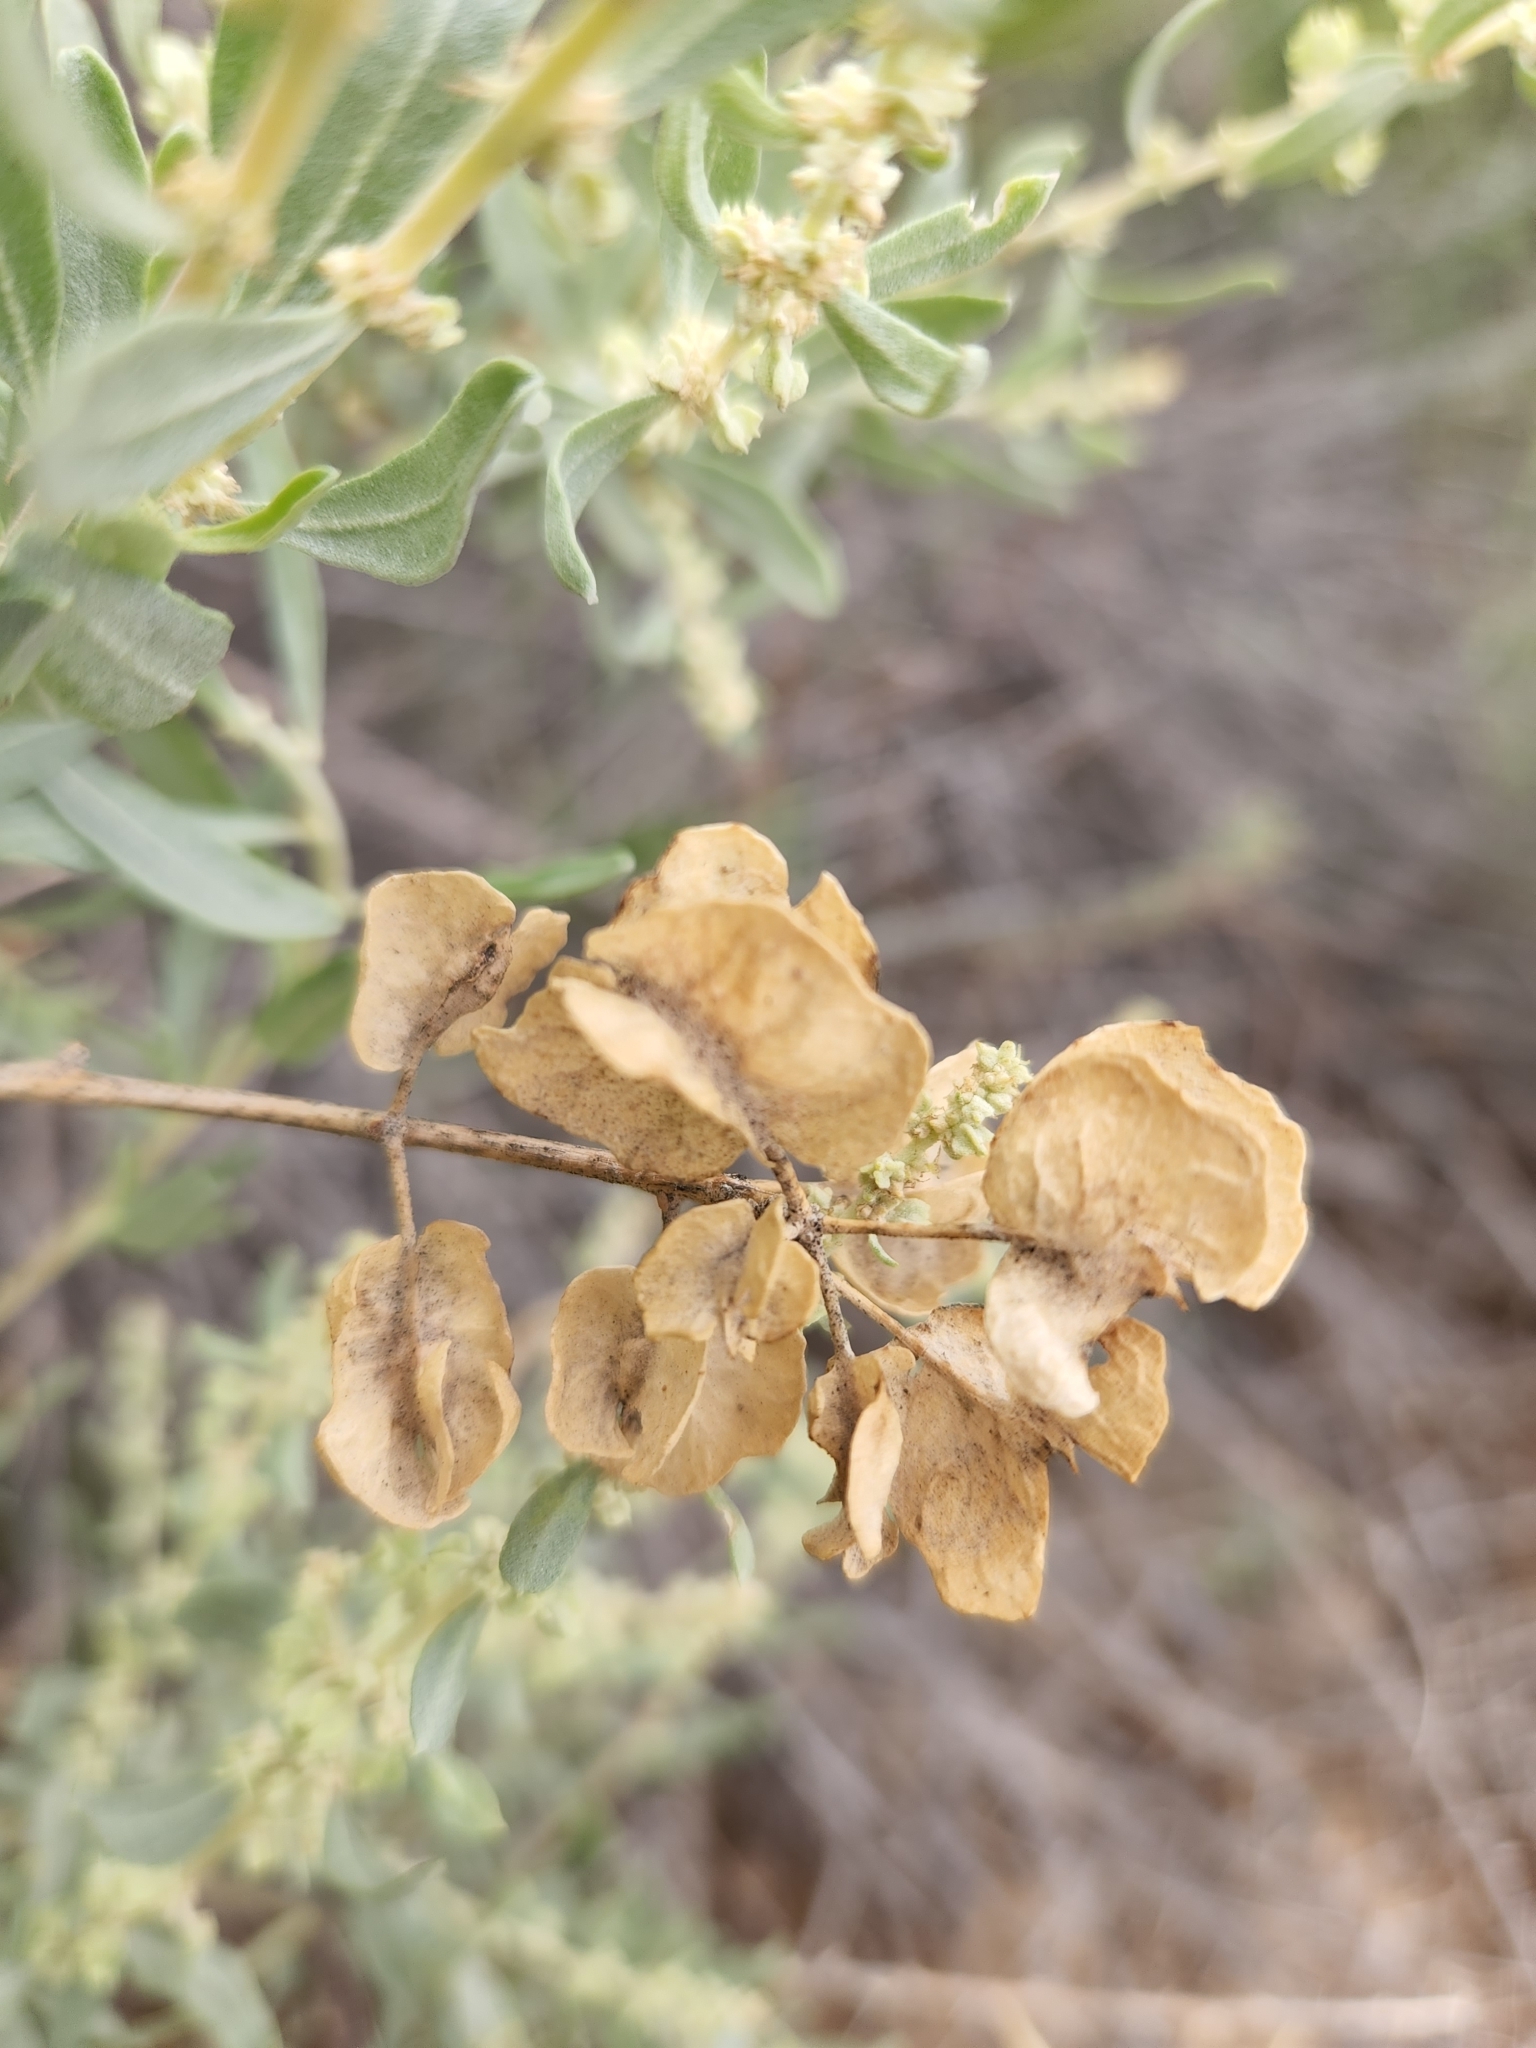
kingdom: Plantae
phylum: Tracheophyta
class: Magnoliopsida
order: Caryophyllales
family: Amaranthaceae
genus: Atriplex
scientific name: Atriplex canescens
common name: Four-wing saltbush
